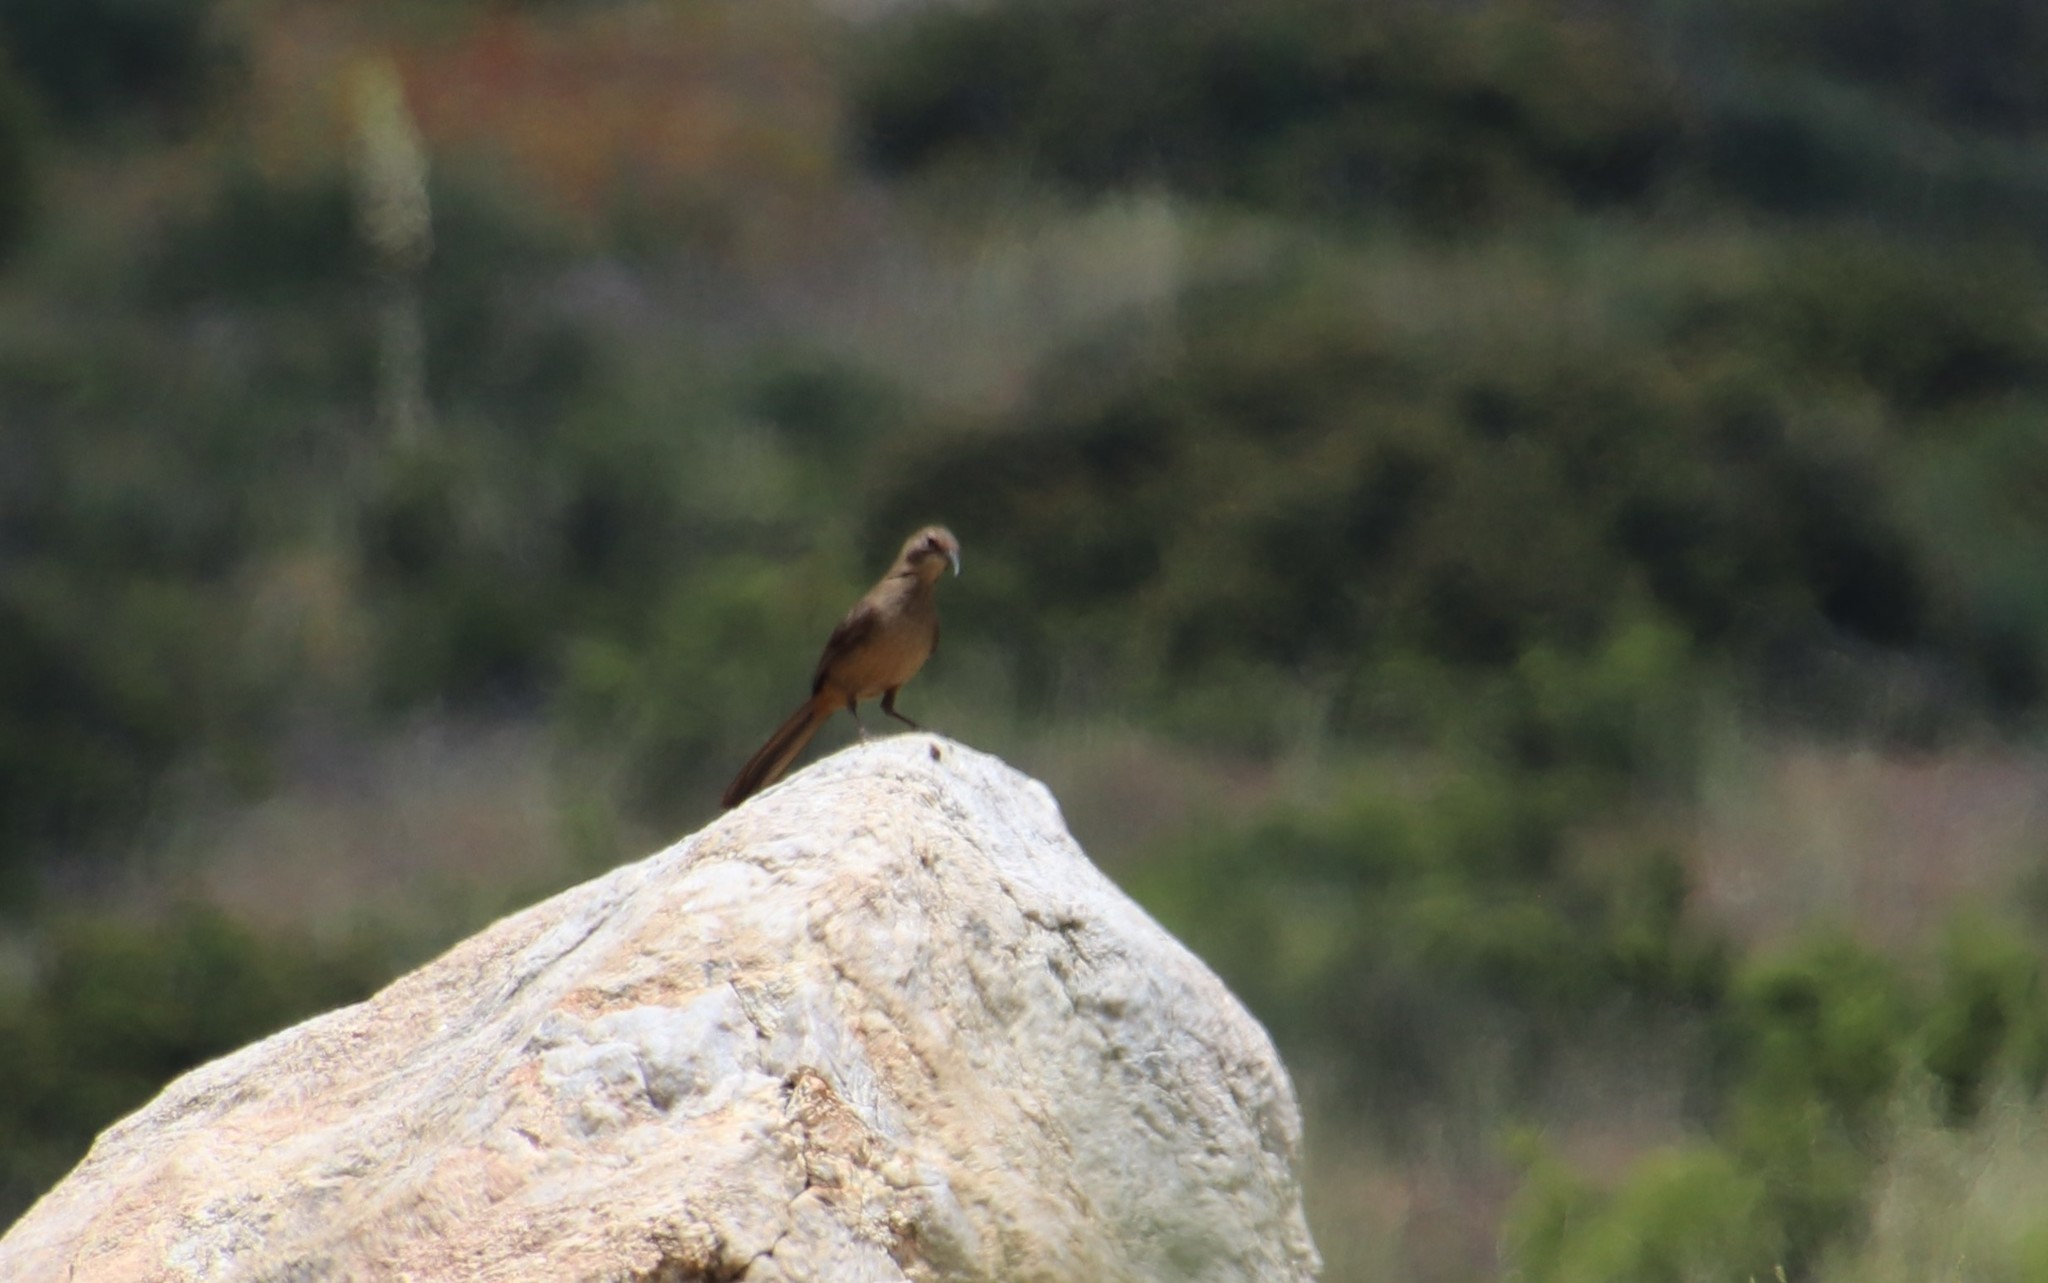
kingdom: Animalia
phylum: Chordata
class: Aves
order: Passeriformes
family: Mimidae
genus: Toxostoma
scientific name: Toxostoma redivivum
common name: California thrasher
